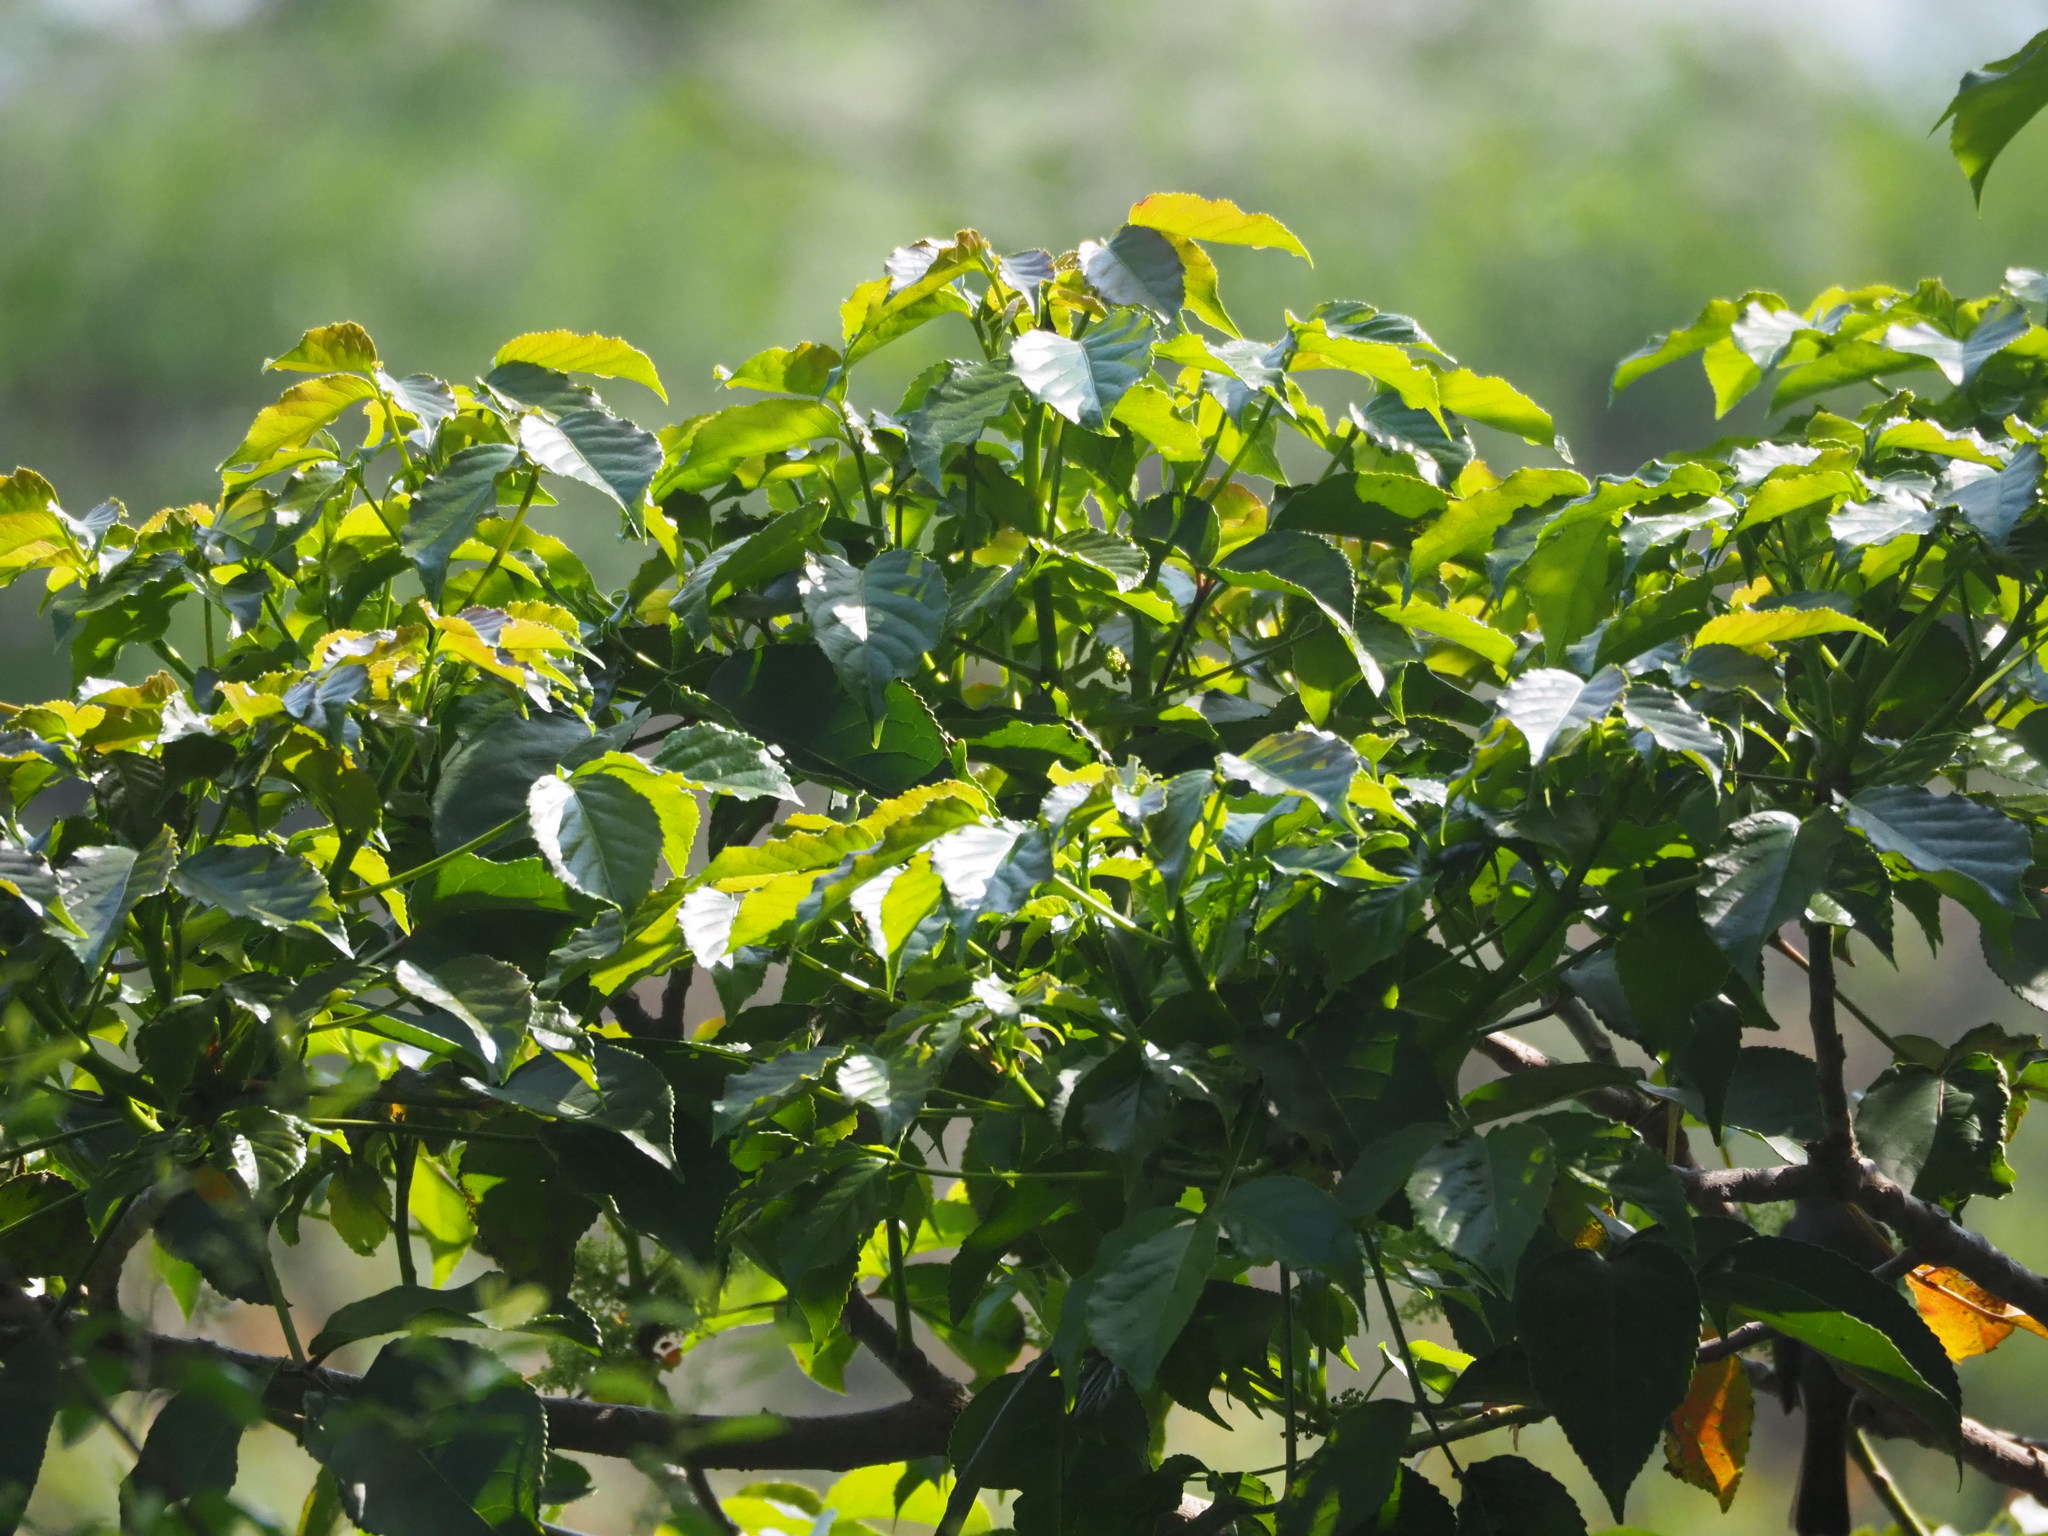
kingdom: Plantae
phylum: Tracheophyta
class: Magnoliopsida
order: Malpighiales
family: Phyllanthaceae
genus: Bischofia
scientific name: Bischofia javanica
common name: Javanese bishopwood
